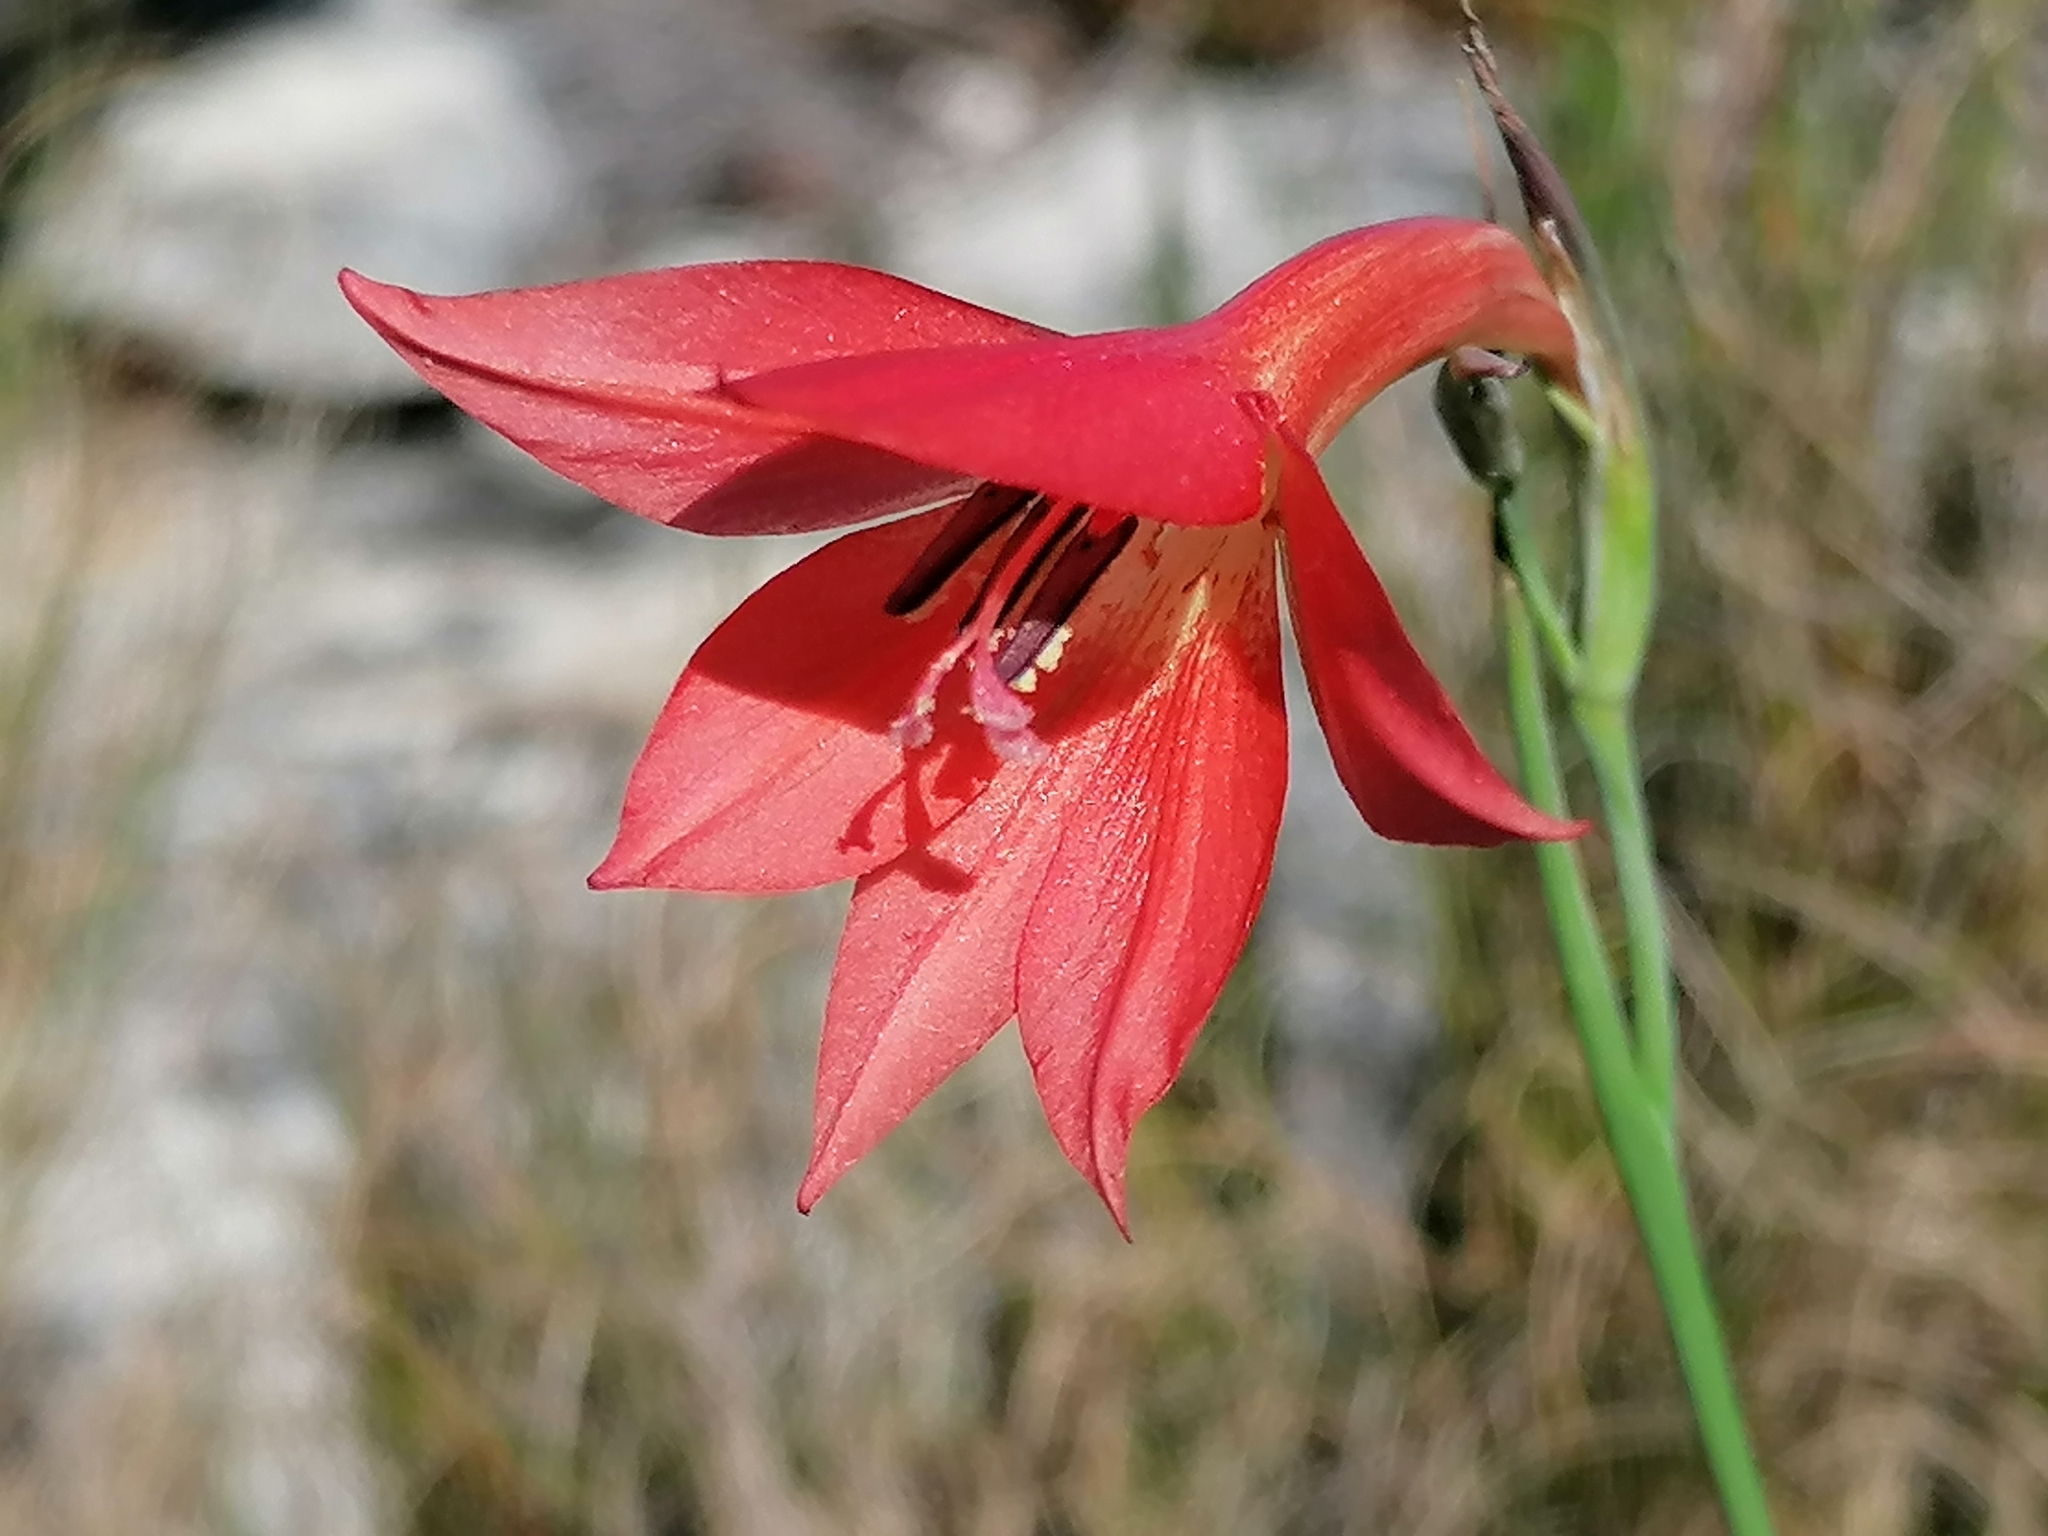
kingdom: Plantae
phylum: Tracheophyta
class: Liliopsida
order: Asparagales
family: Iridaceae
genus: Gladiolus
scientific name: Gladiolus priorii
